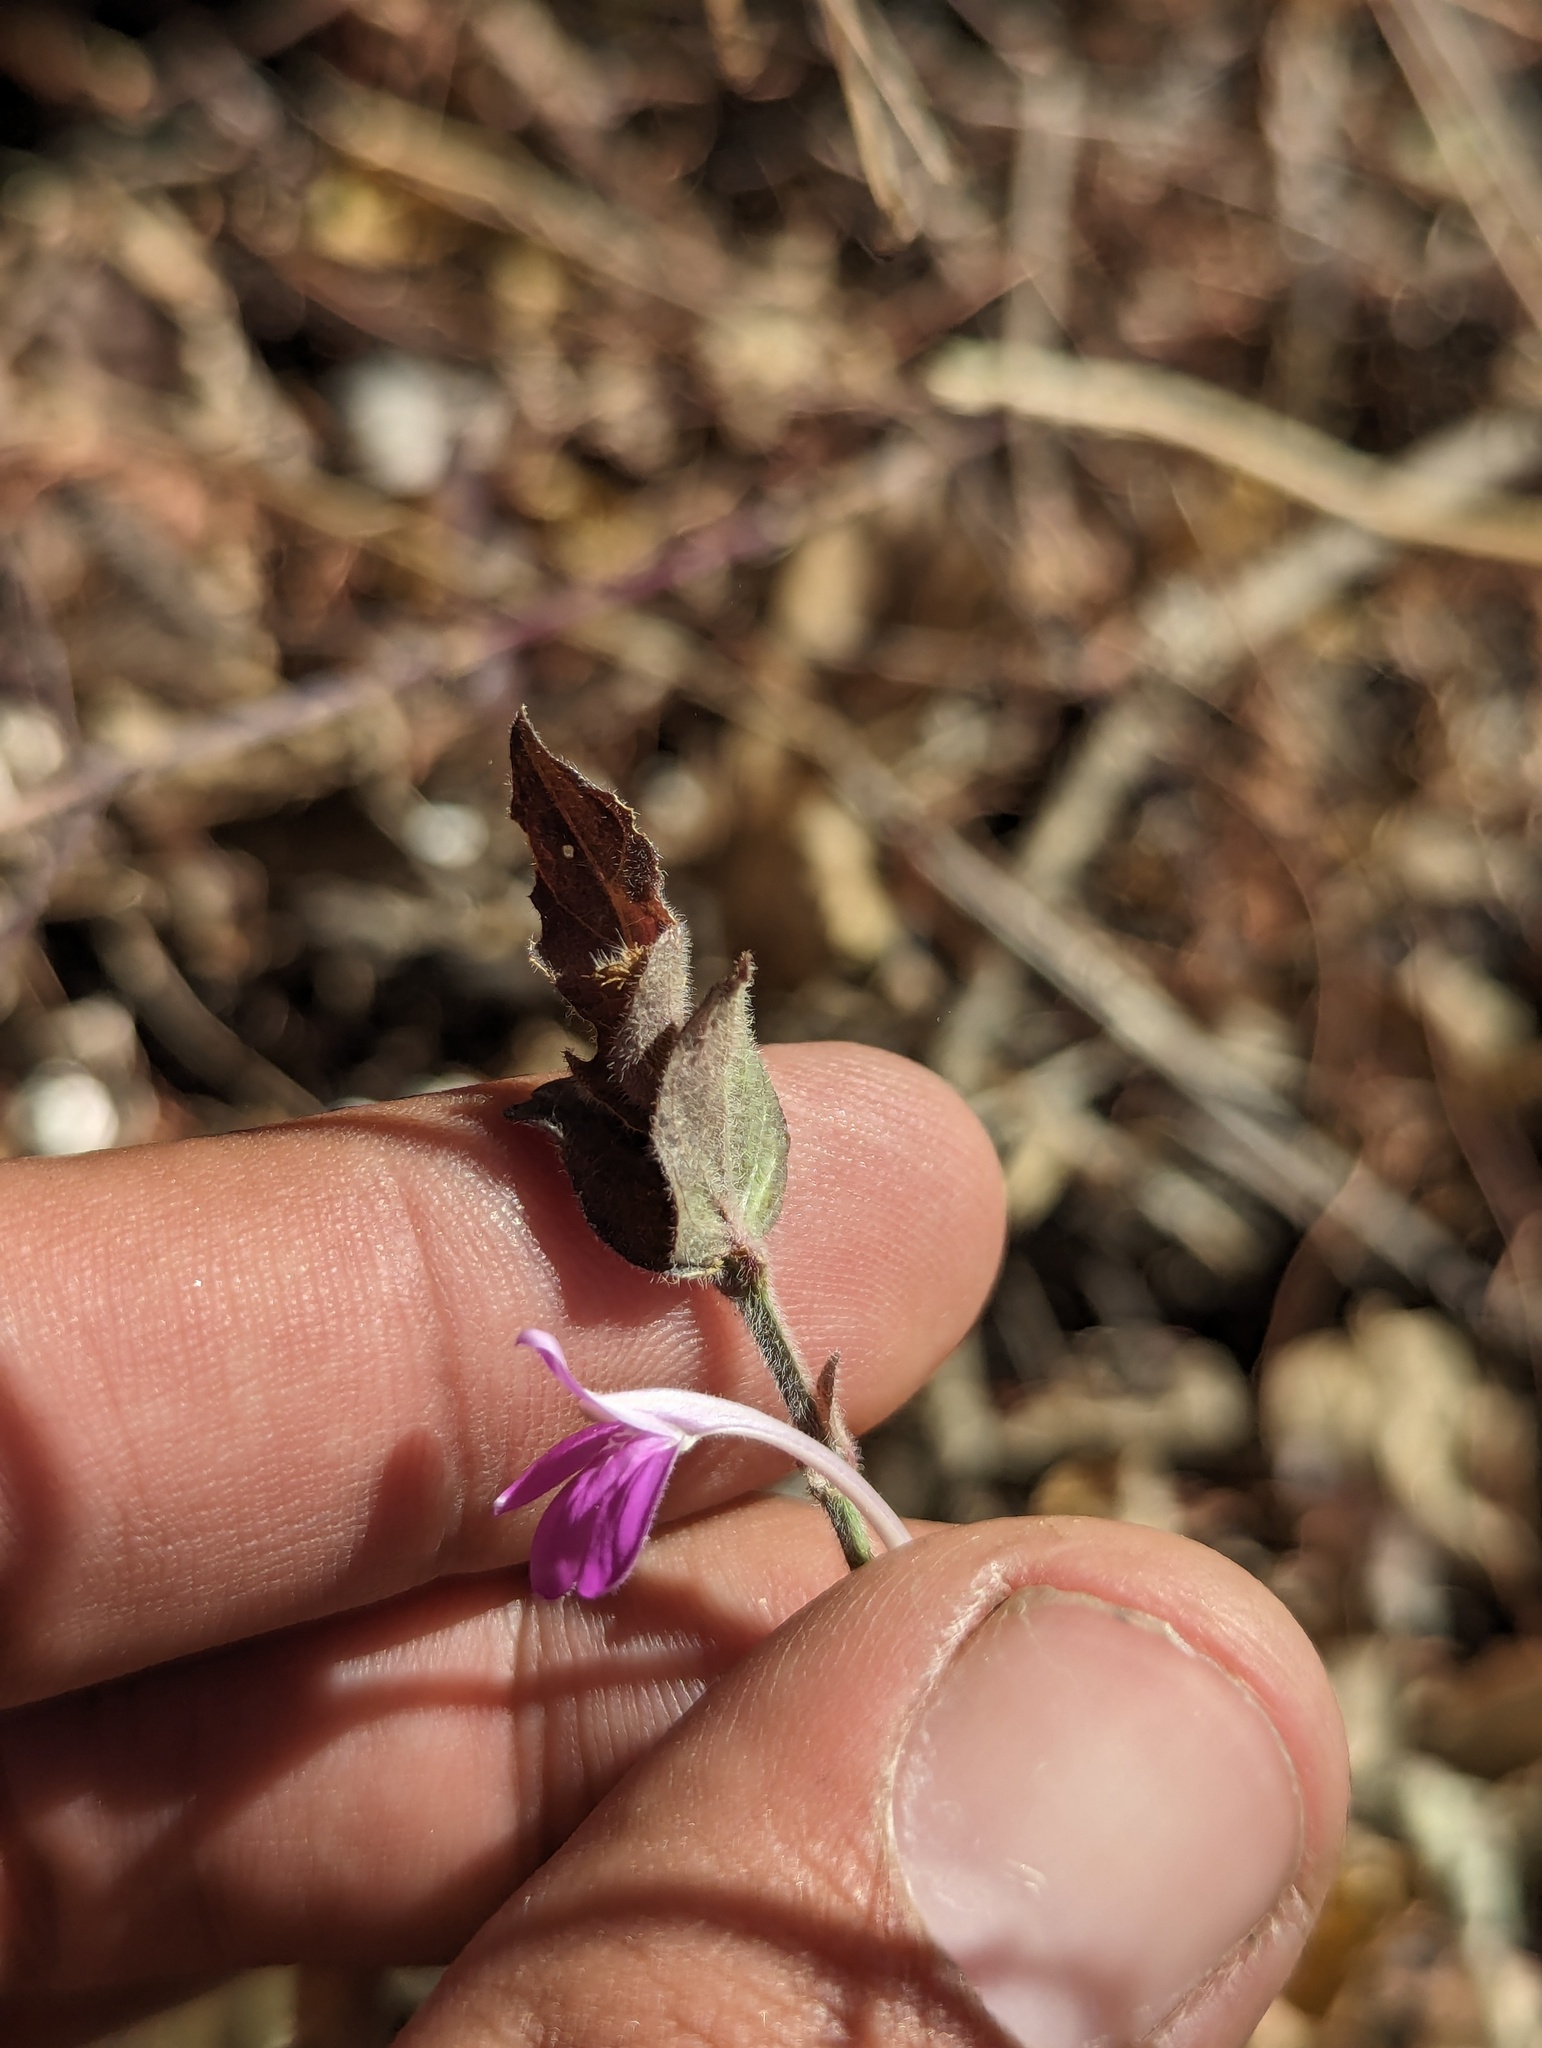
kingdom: Plantae
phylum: Tracheophyta
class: Magnoliopsida
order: Lamiales
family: Acanthaceae
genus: Dianthera
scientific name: Dianthera incerta
